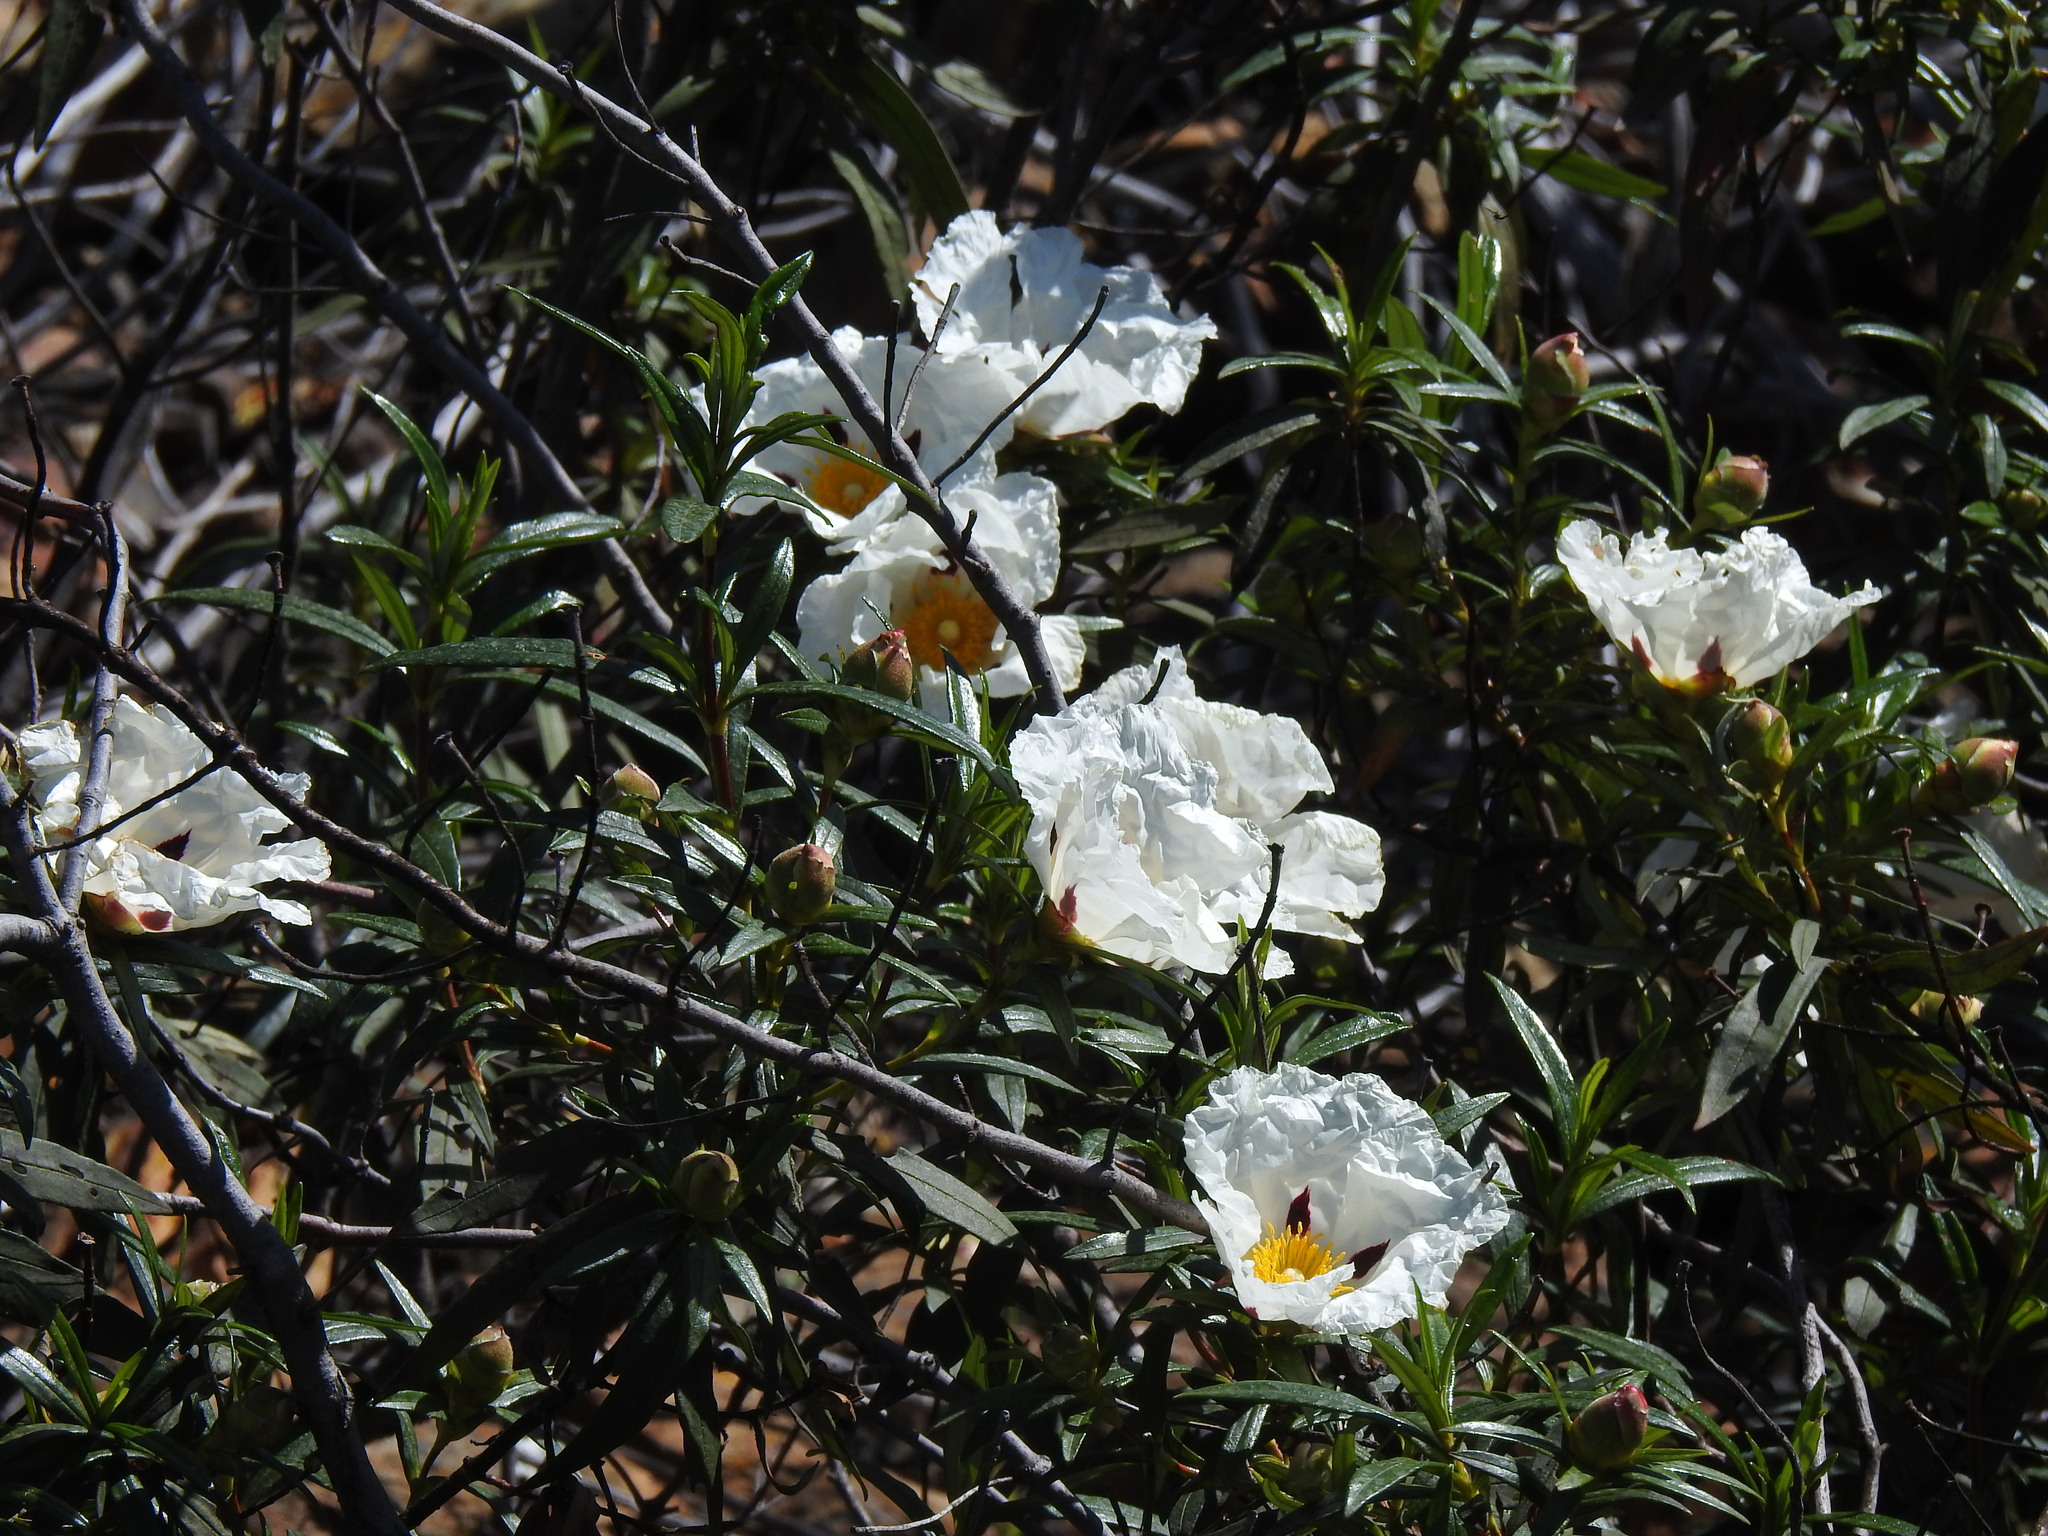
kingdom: Plantae
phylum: Tracheophyta
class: Magnoliopsida
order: Malvales
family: Cistaceae
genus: Cistus
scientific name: Cistus ladanifer
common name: Common gum cistus
